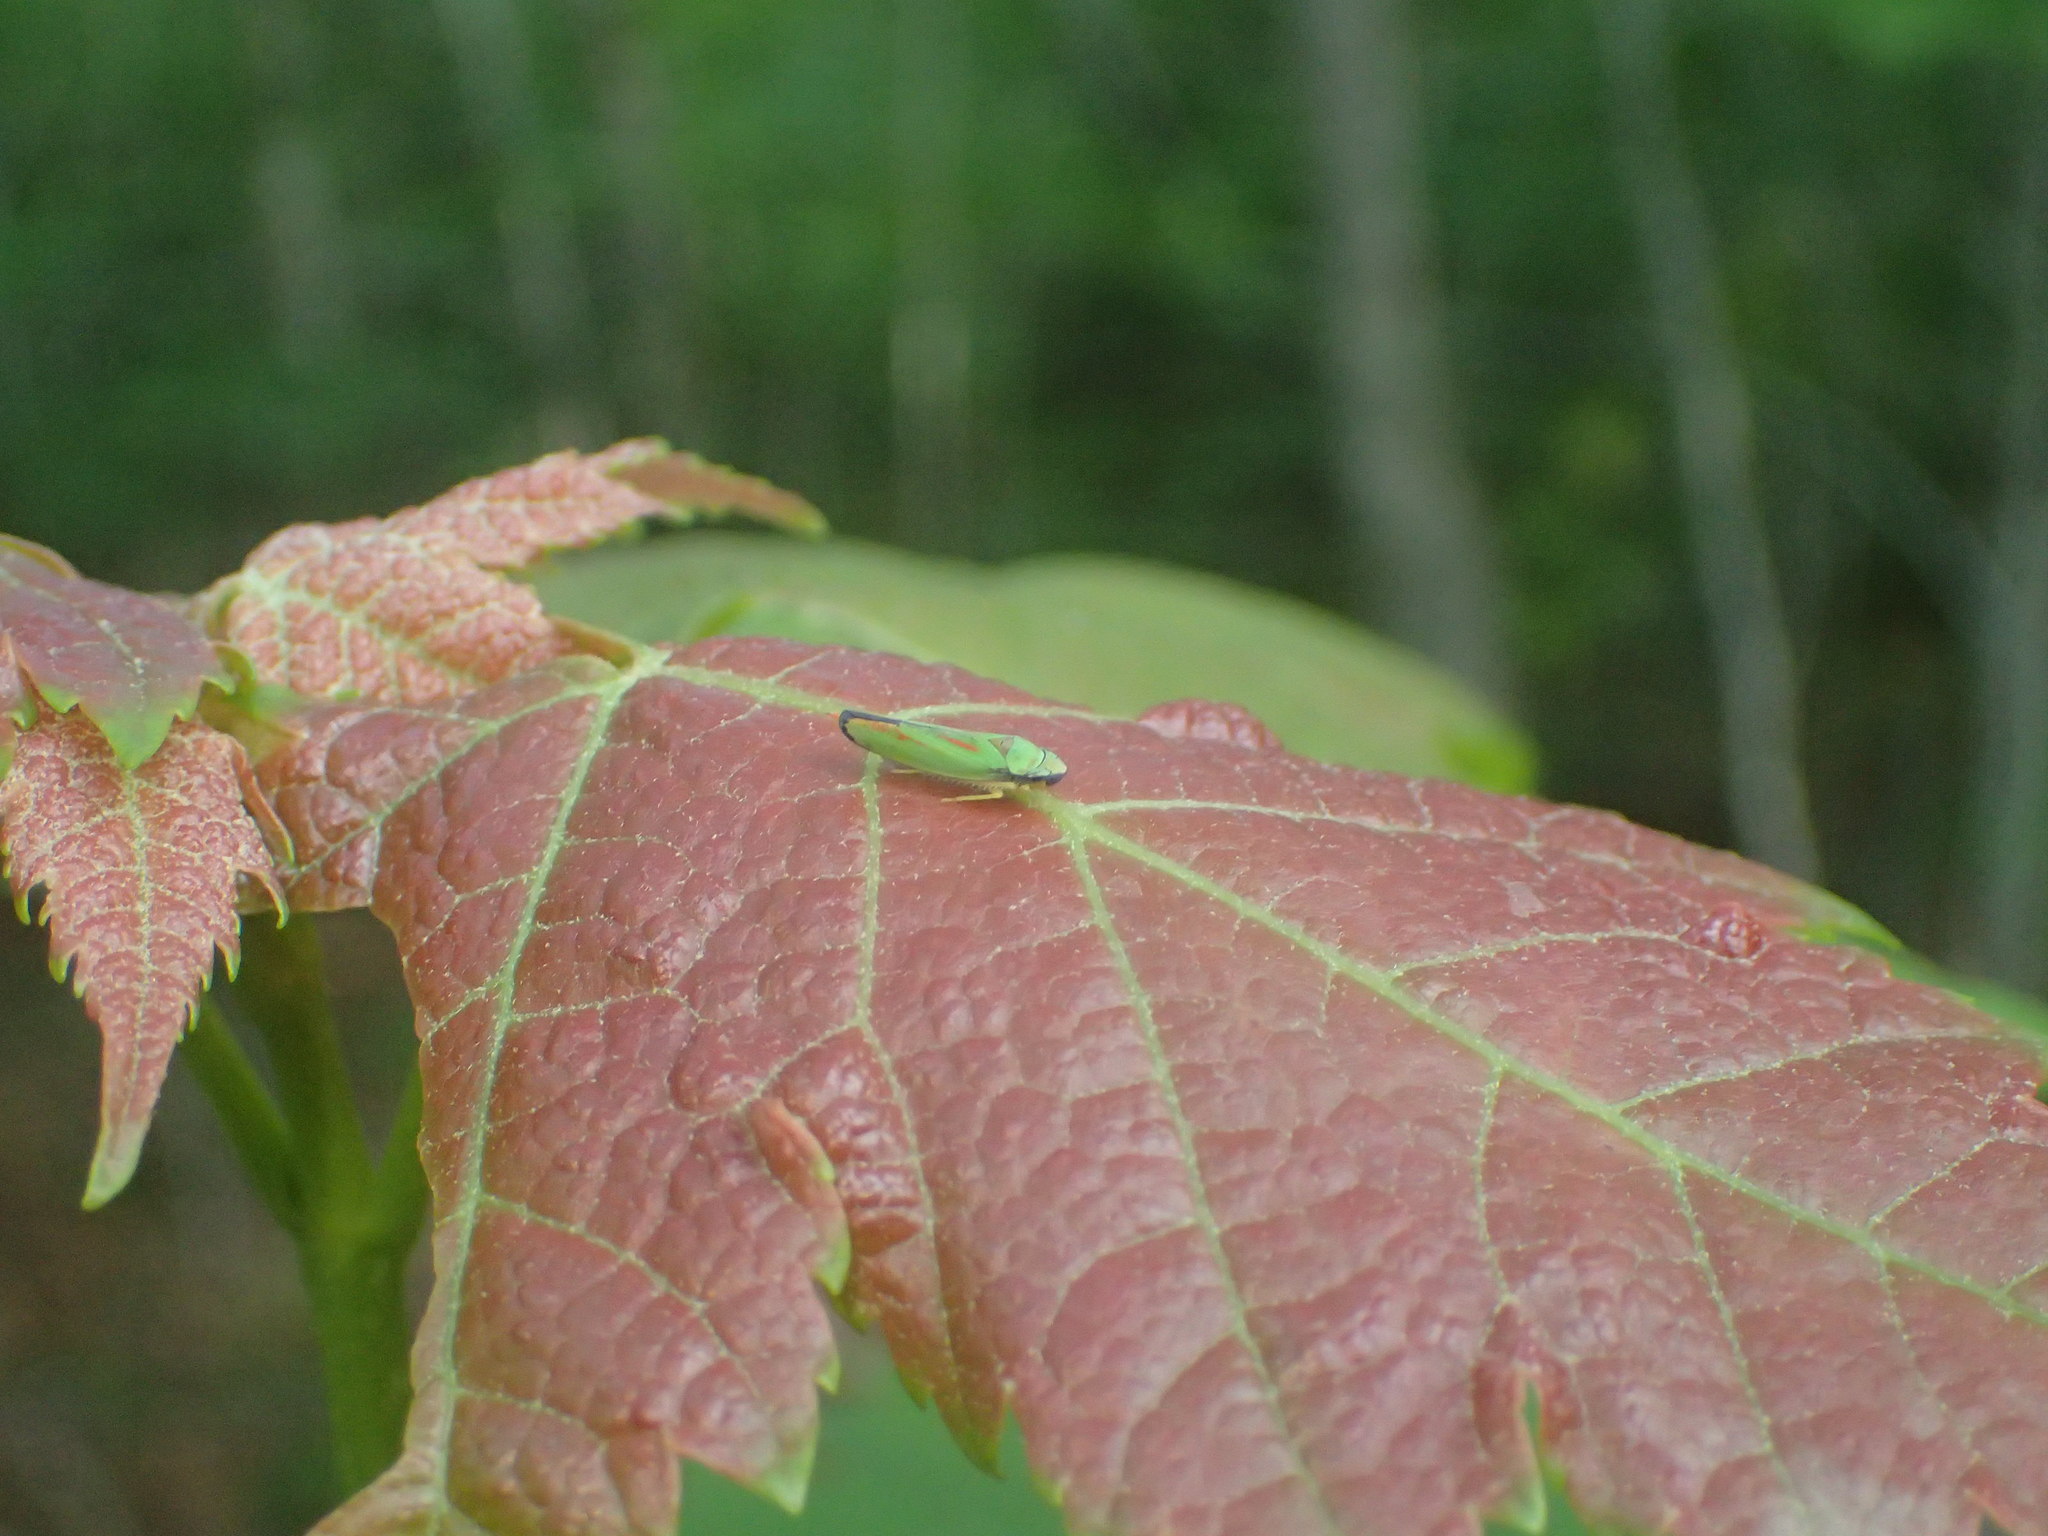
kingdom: Animalia
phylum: Arthropoda
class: Insecta
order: Hemiptera
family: Cicadellidae
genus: Graphocephala
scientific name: Graphocephala fennahi
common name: Rhododendron leafhopper
